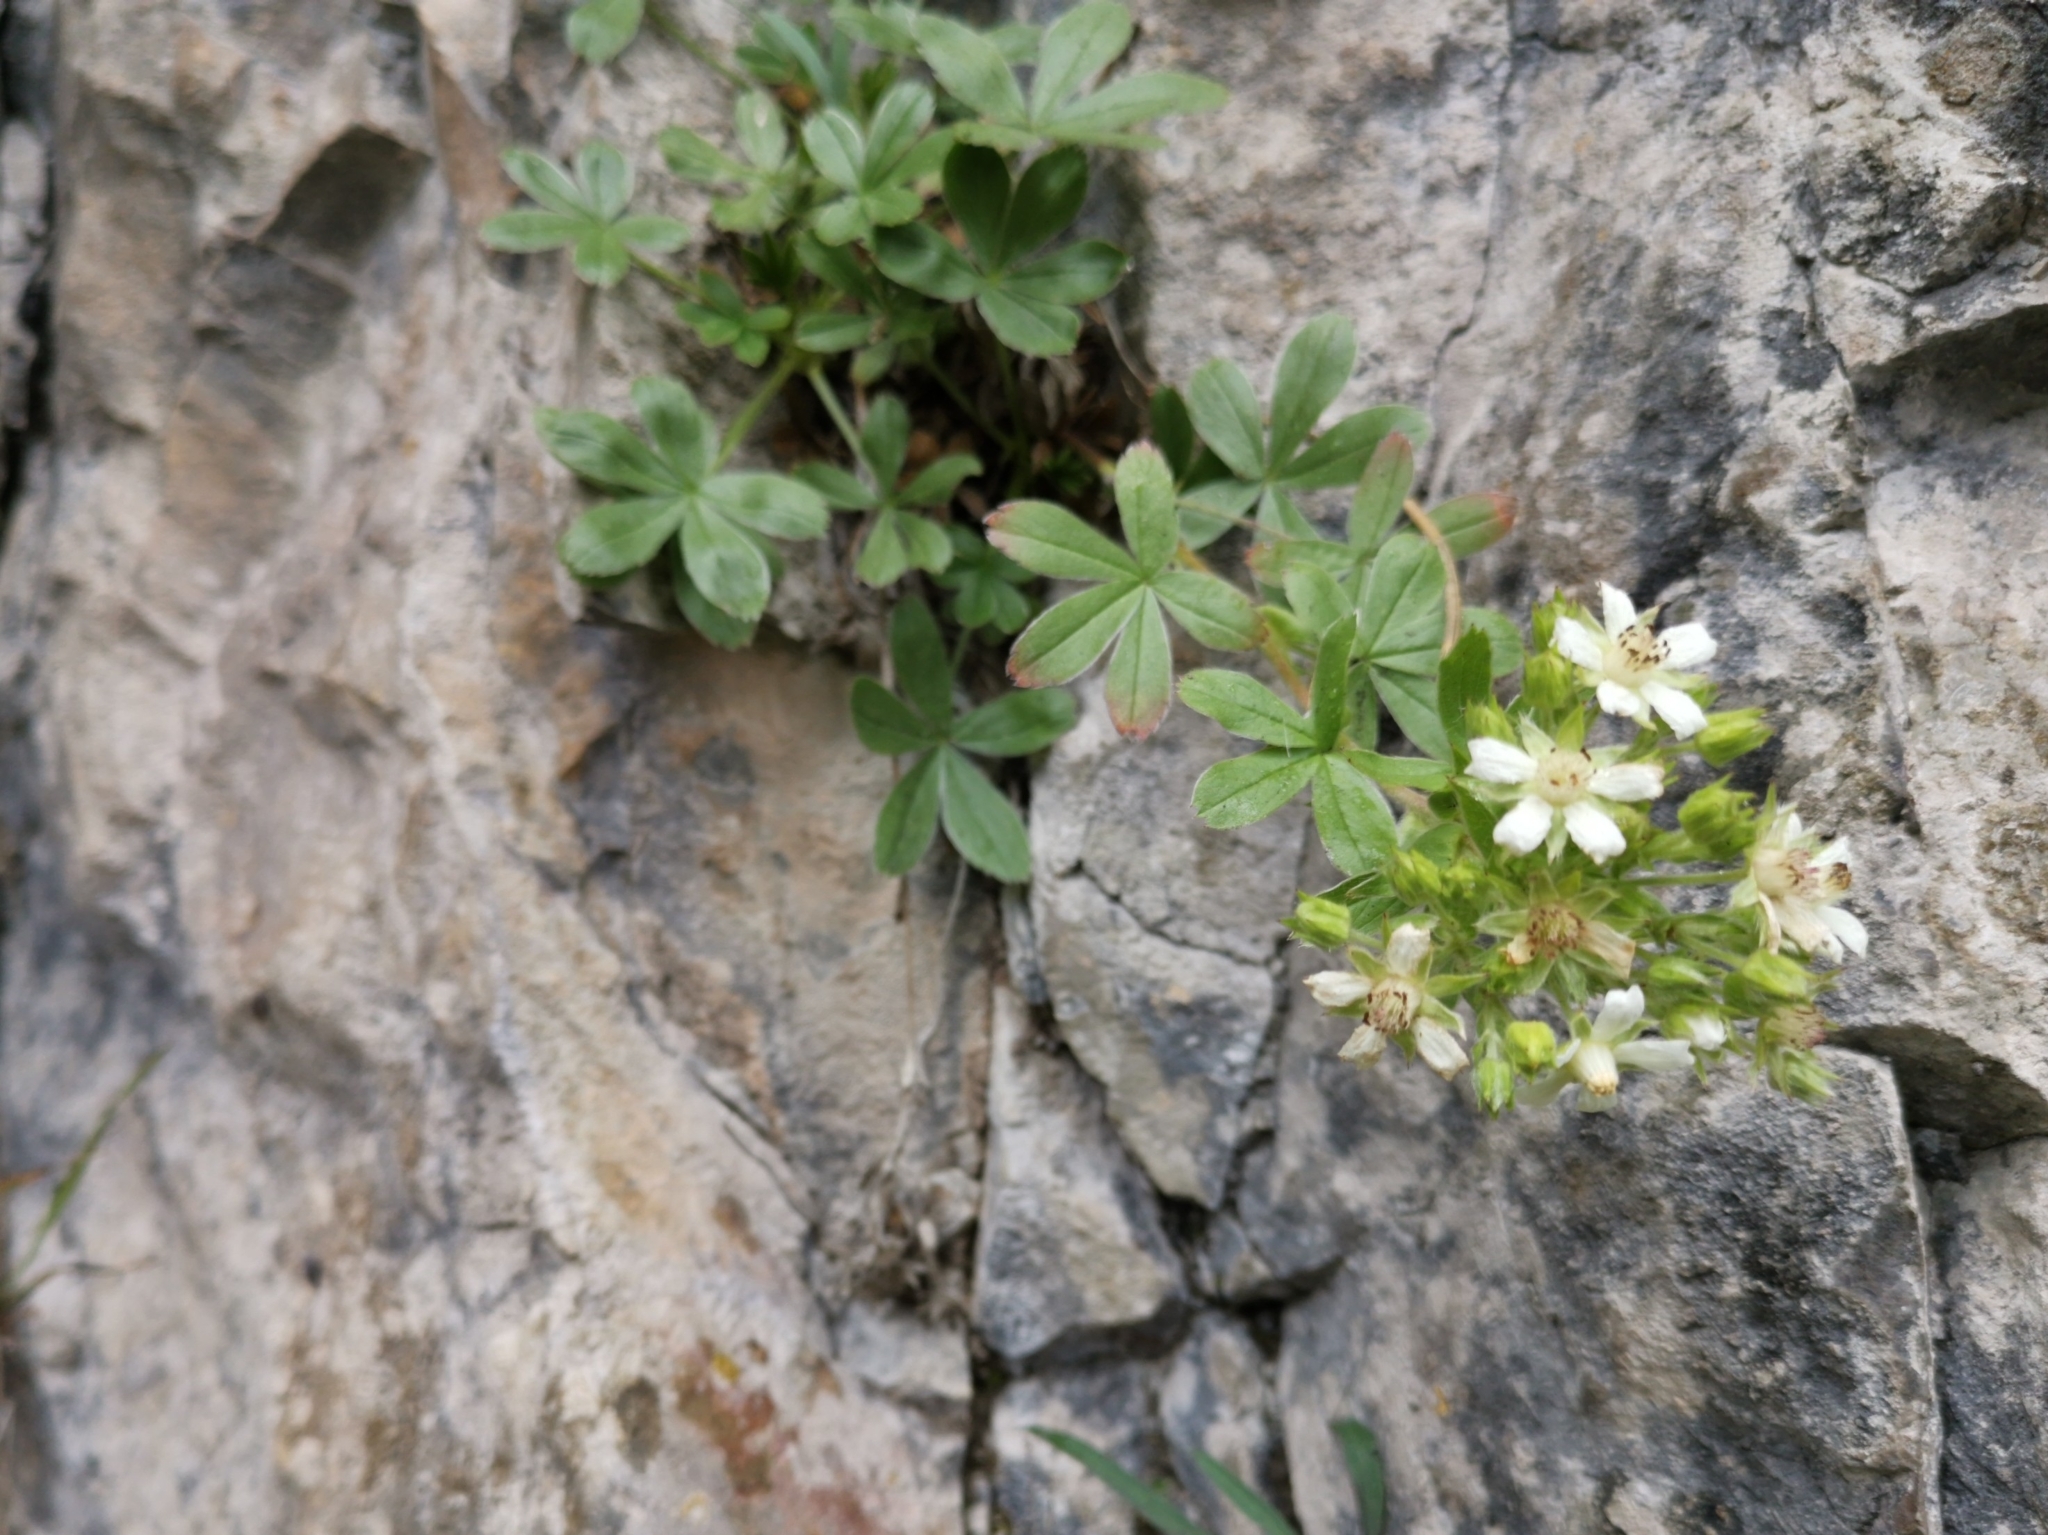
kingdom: Plantae
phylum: Tracheophyta
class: Magnoliopsida
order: Rosales
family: Rosaceae
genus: Potentilla
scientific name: Potentilla caulescens
